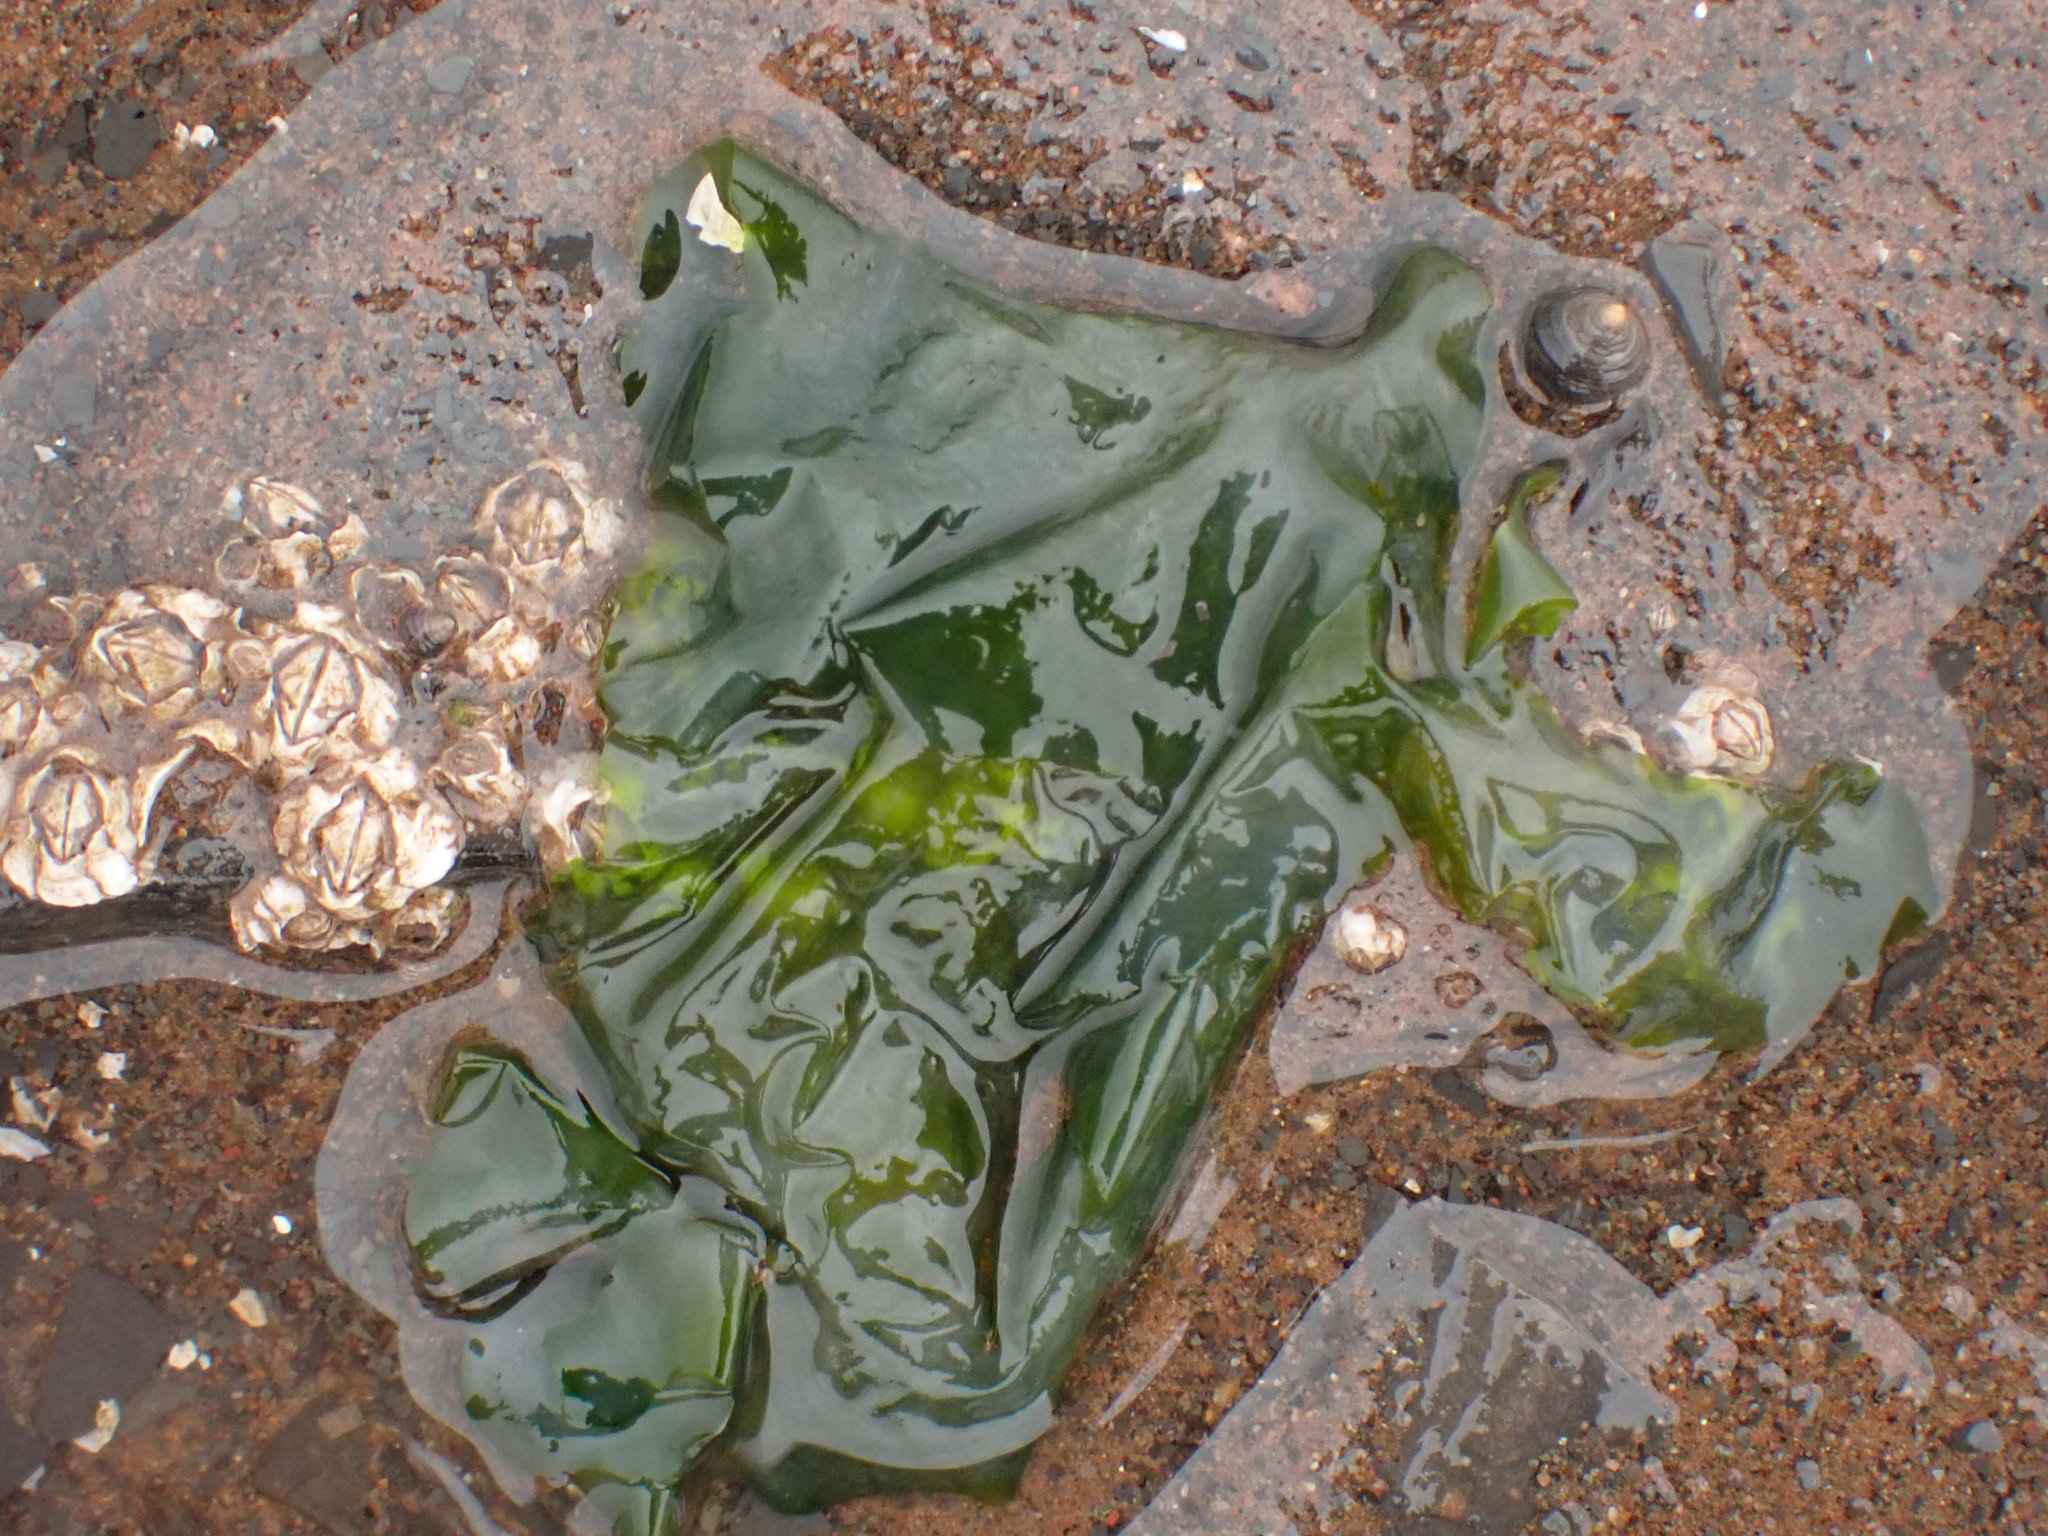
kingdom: Plantae
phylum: Chlorophyta
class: Ulvophyceae
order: Ulvales
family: Ulvaceae
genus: Ulva
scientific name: Ulva lactuca
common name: Sea lettuce
